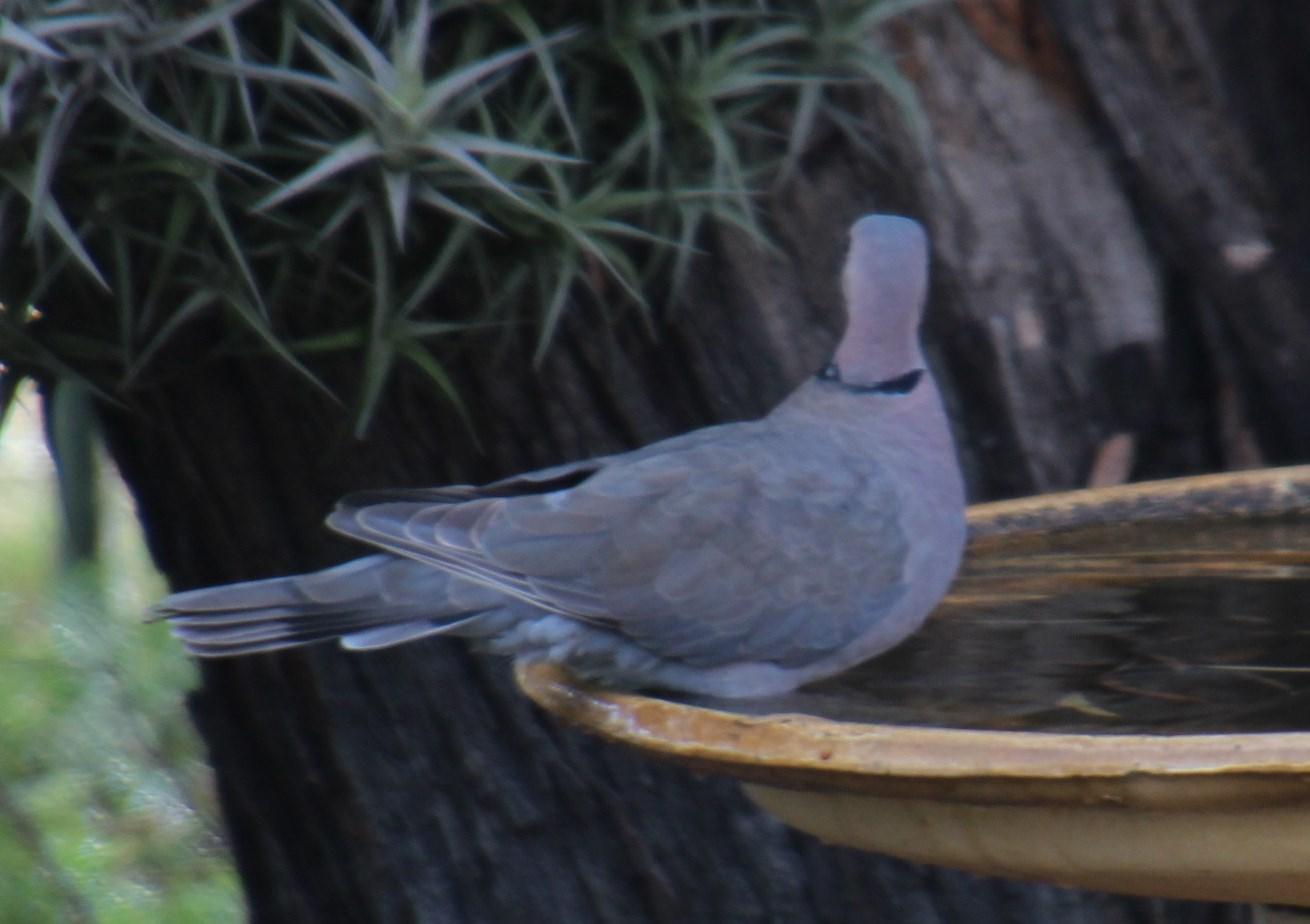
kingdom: Animalia
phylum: Chordata
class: Aves
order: Columbiformes
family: Columbidae
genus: Streptopelia
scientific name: Streptopelia semitorquata
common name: Red-eyed dove
